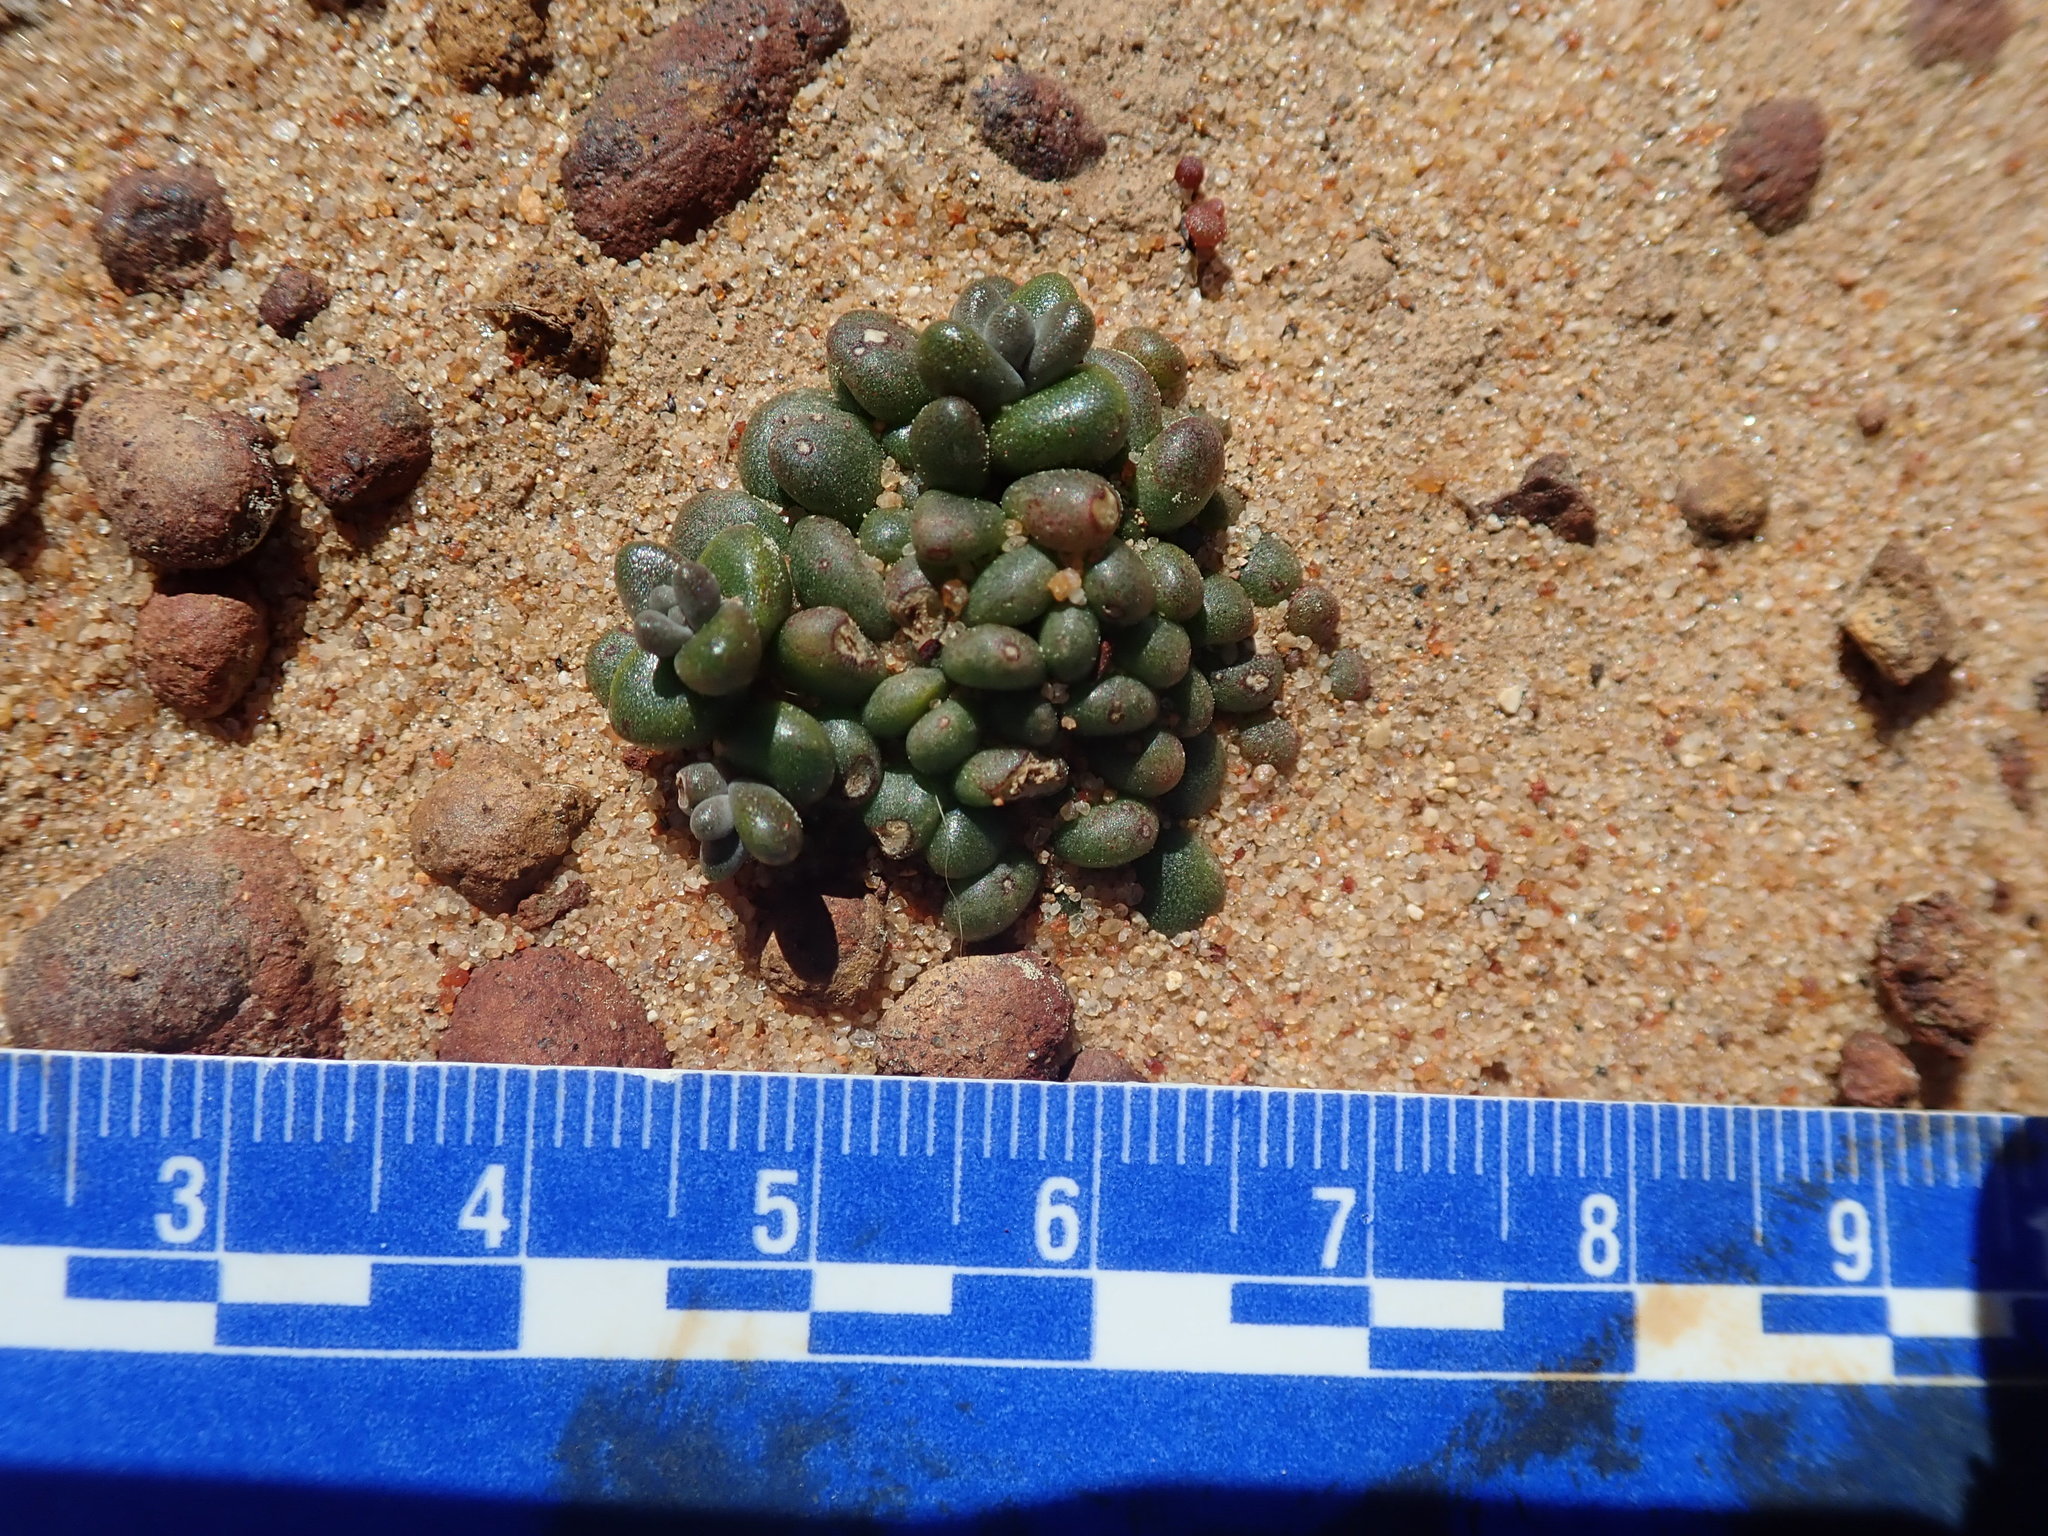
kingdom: Plantae
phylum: Tracheophyta
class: Magnoliopsida
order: Saxifragales
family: Crassulaceae
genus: Dudleya
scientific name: Dudleya blochmaniae
